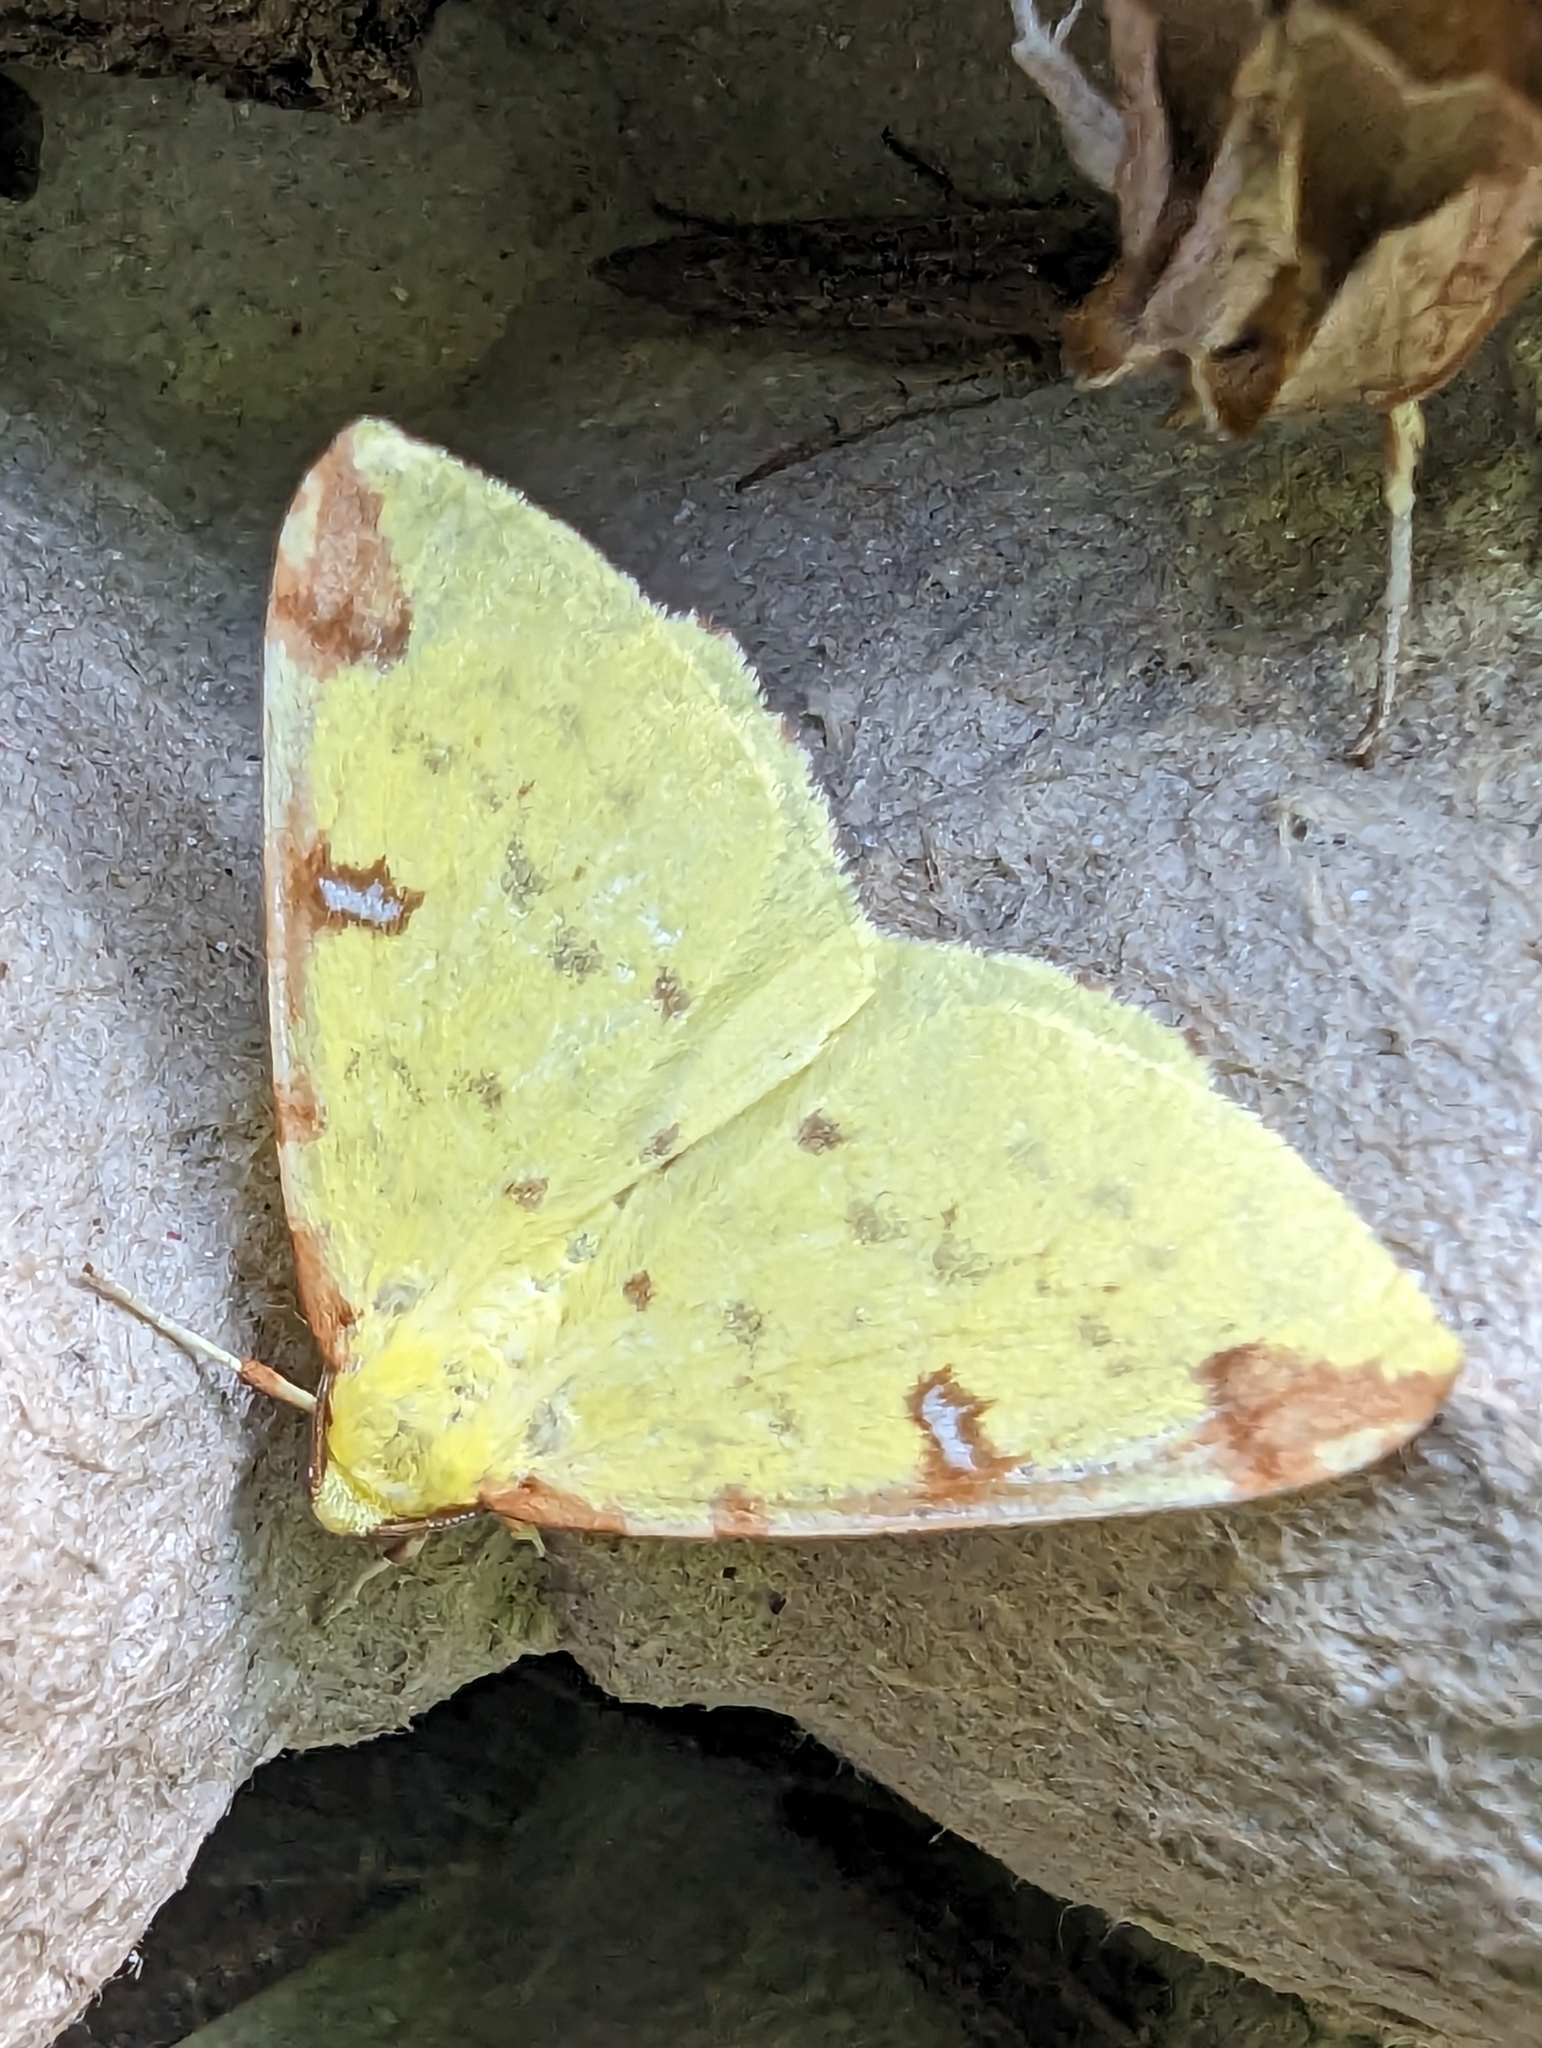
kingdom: Animalia
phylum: Arthropoda
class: Insecta
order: Lepidoptera
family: Geometridae
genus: Opisthograptis
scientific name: Opisthograptis luteolata
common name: Brimstone moth
